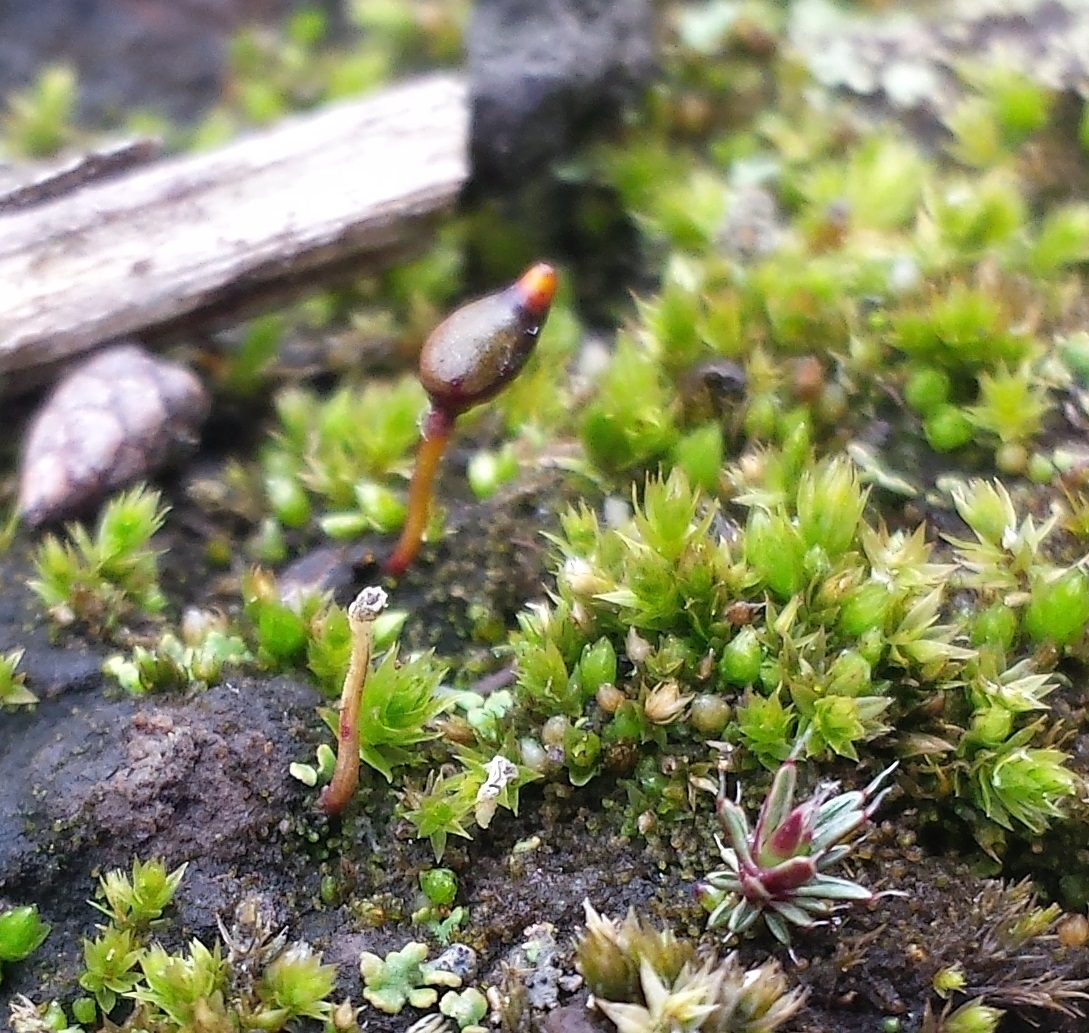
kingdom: Plantae
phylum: Bryophyta
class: Bryopsida
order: Buxbaumiales
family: Buxbaumiaceae
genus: Buxbaumia
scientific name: Buxbaumia aphylla
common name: Brown shield-moss
